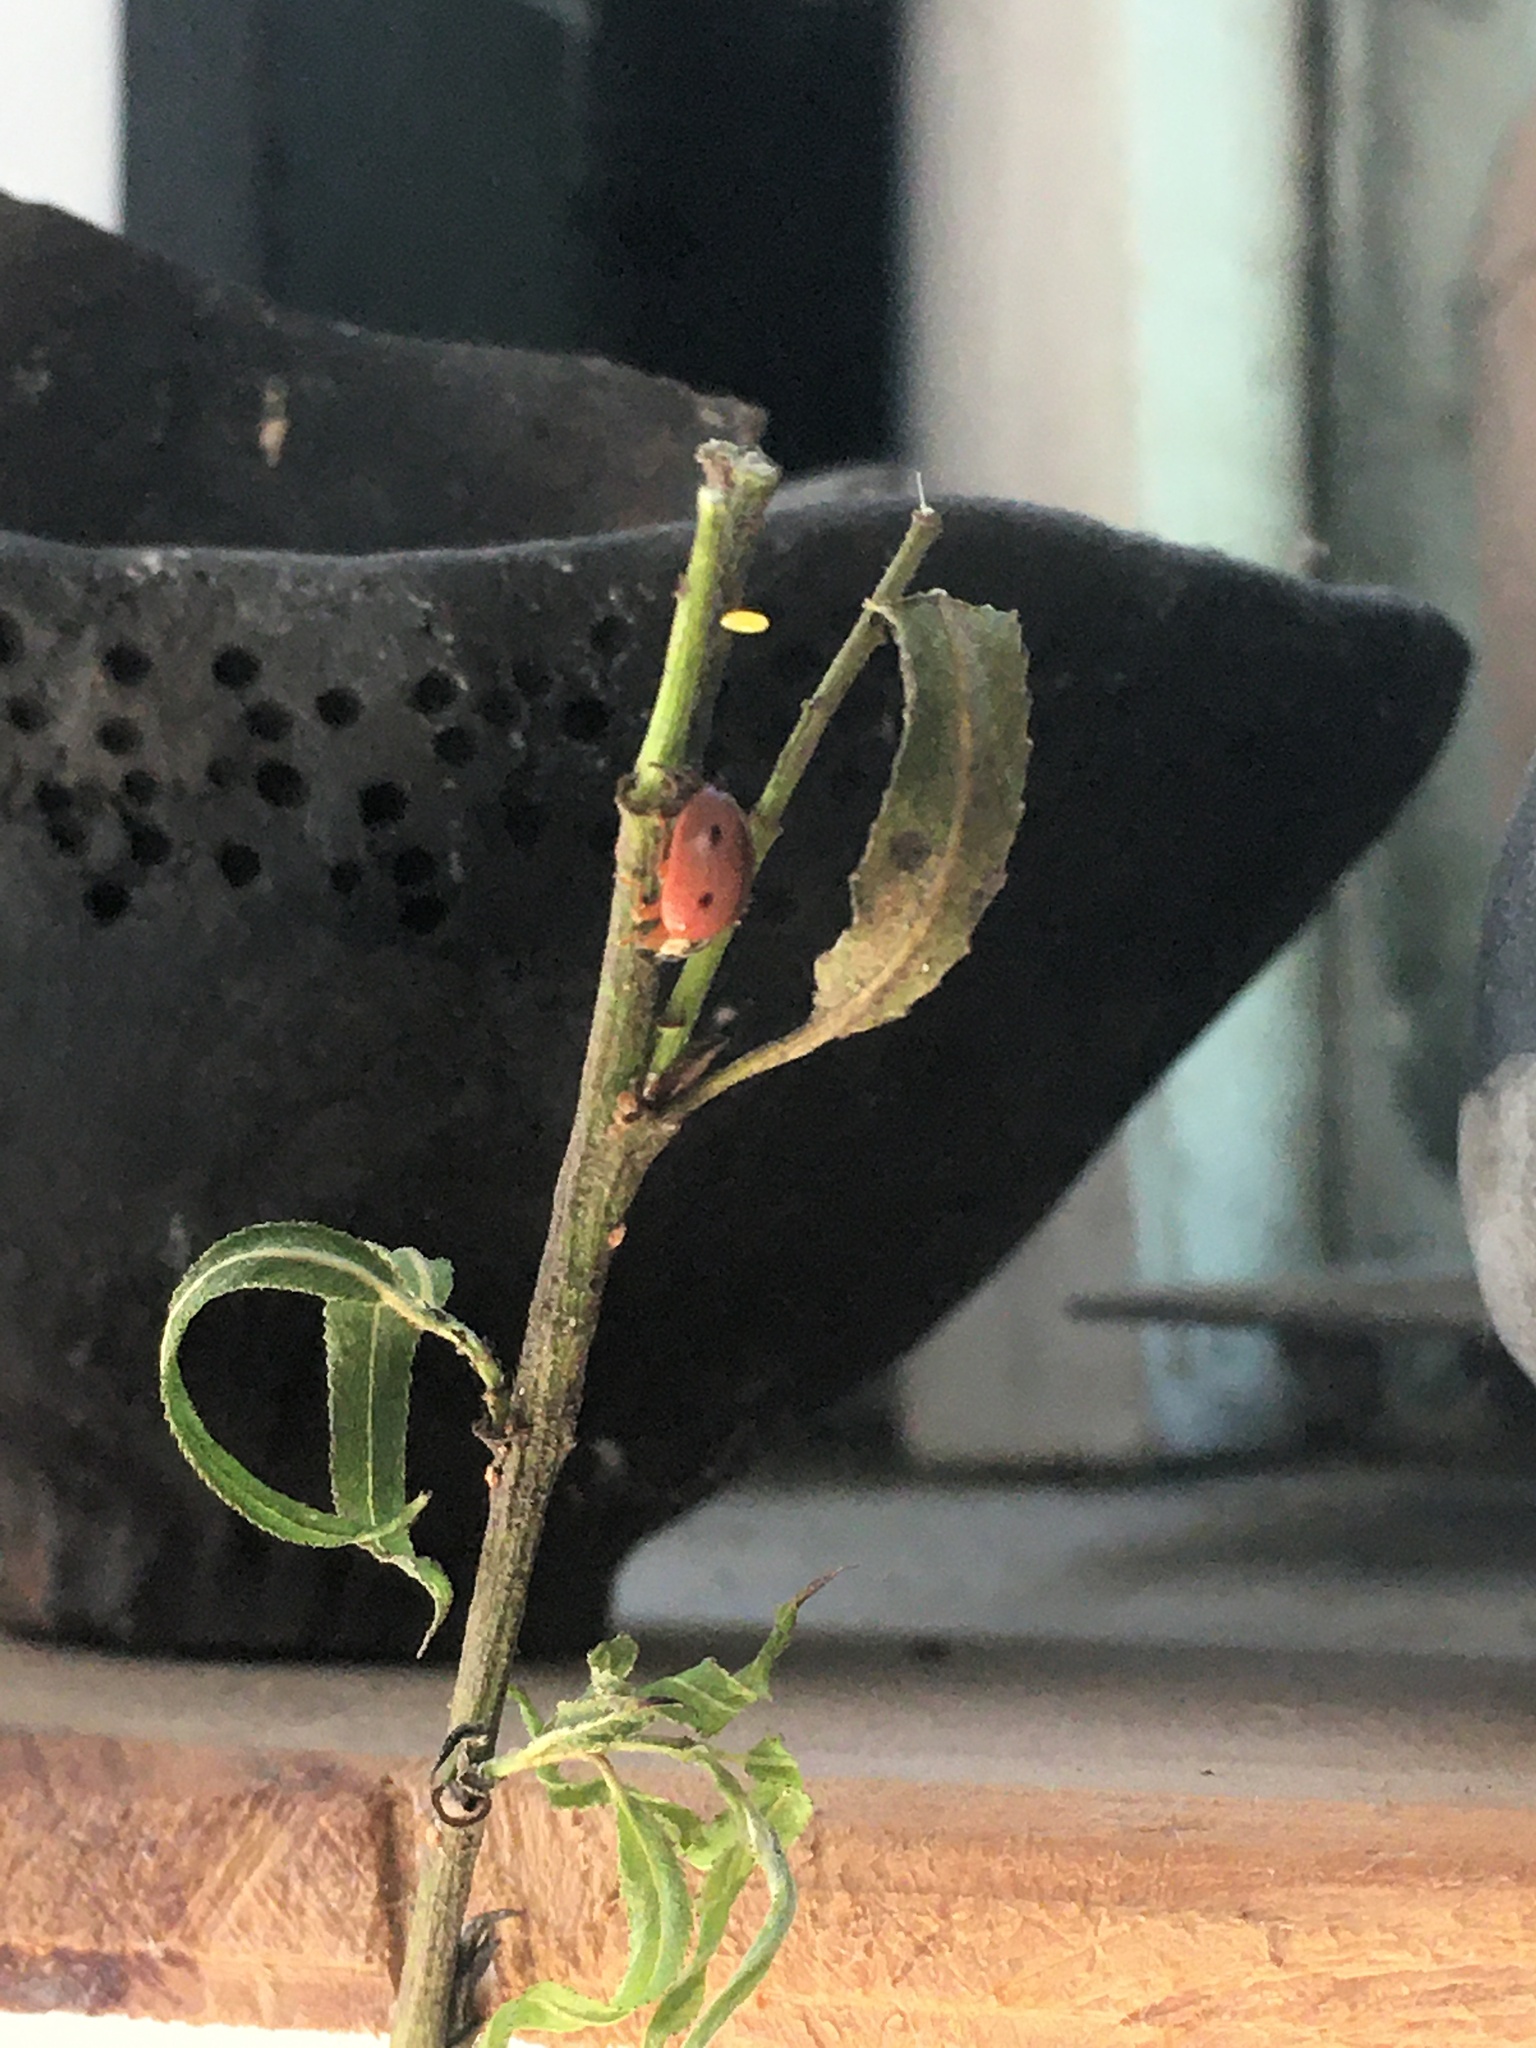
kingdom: Animalia
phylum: Arthropoda
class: Insecta
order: Coleoptera
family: Coccinellidae
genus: Mulsantina
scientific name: Mulsantina
